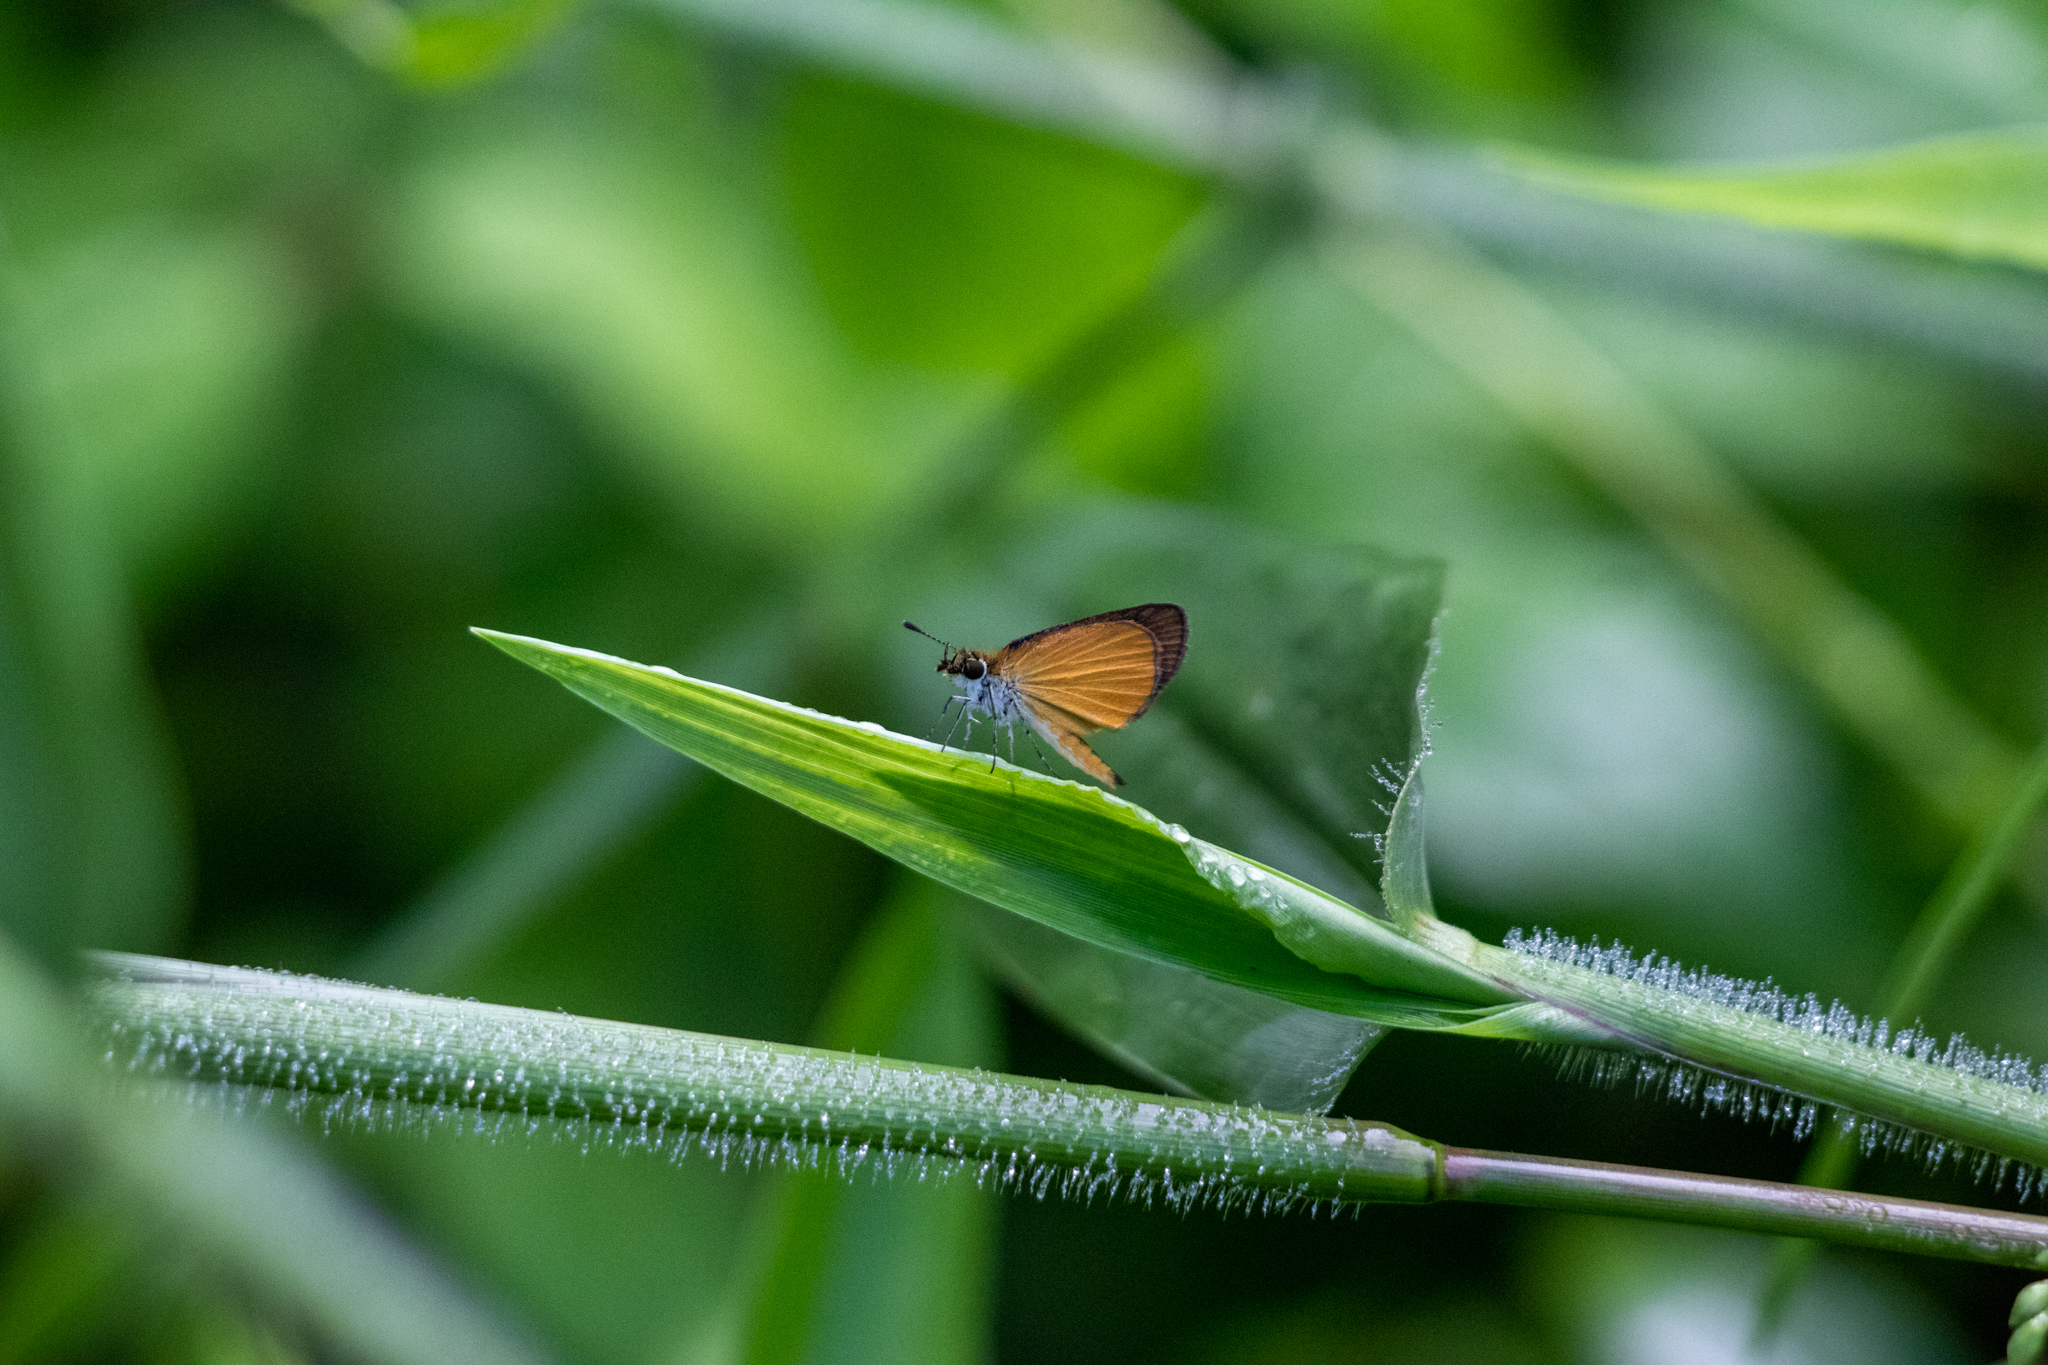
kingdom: Animalia
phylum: Arthropoda
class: Insecta
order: Lepidoptera
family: Hesperiidae
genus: Ancyloxypha
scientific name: Ancyloxypha numitor
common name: Least skipper
